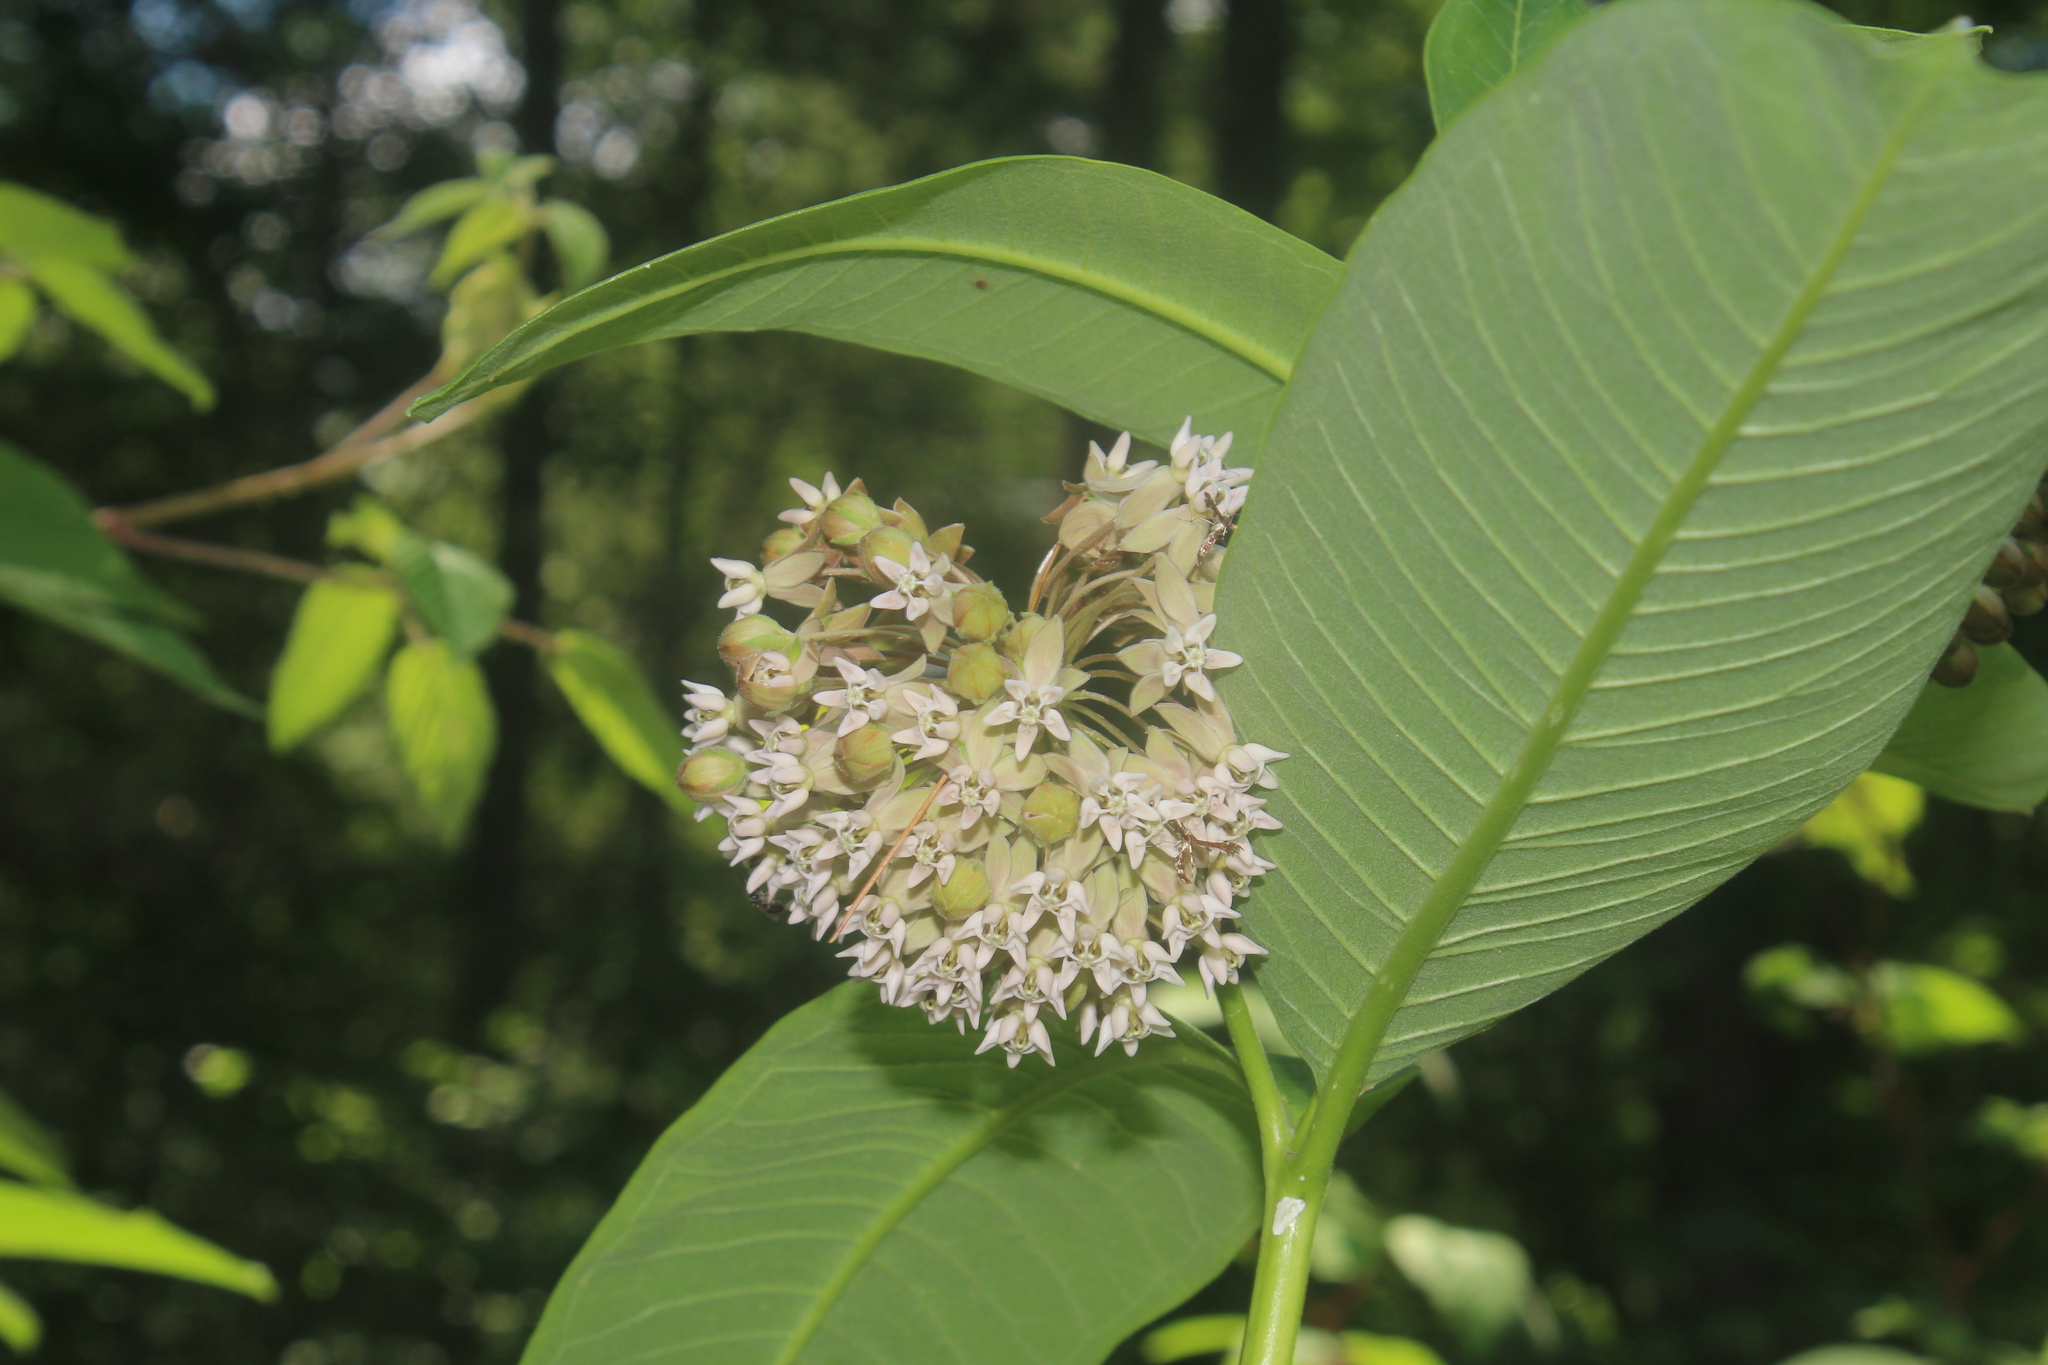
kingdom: Plantae
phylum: Tracheophyta
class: Magnoliopsida
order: Gentianales
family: Apocynaceae
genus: Asclepias
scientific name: Asclepias syriaca
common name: Common milkweed
